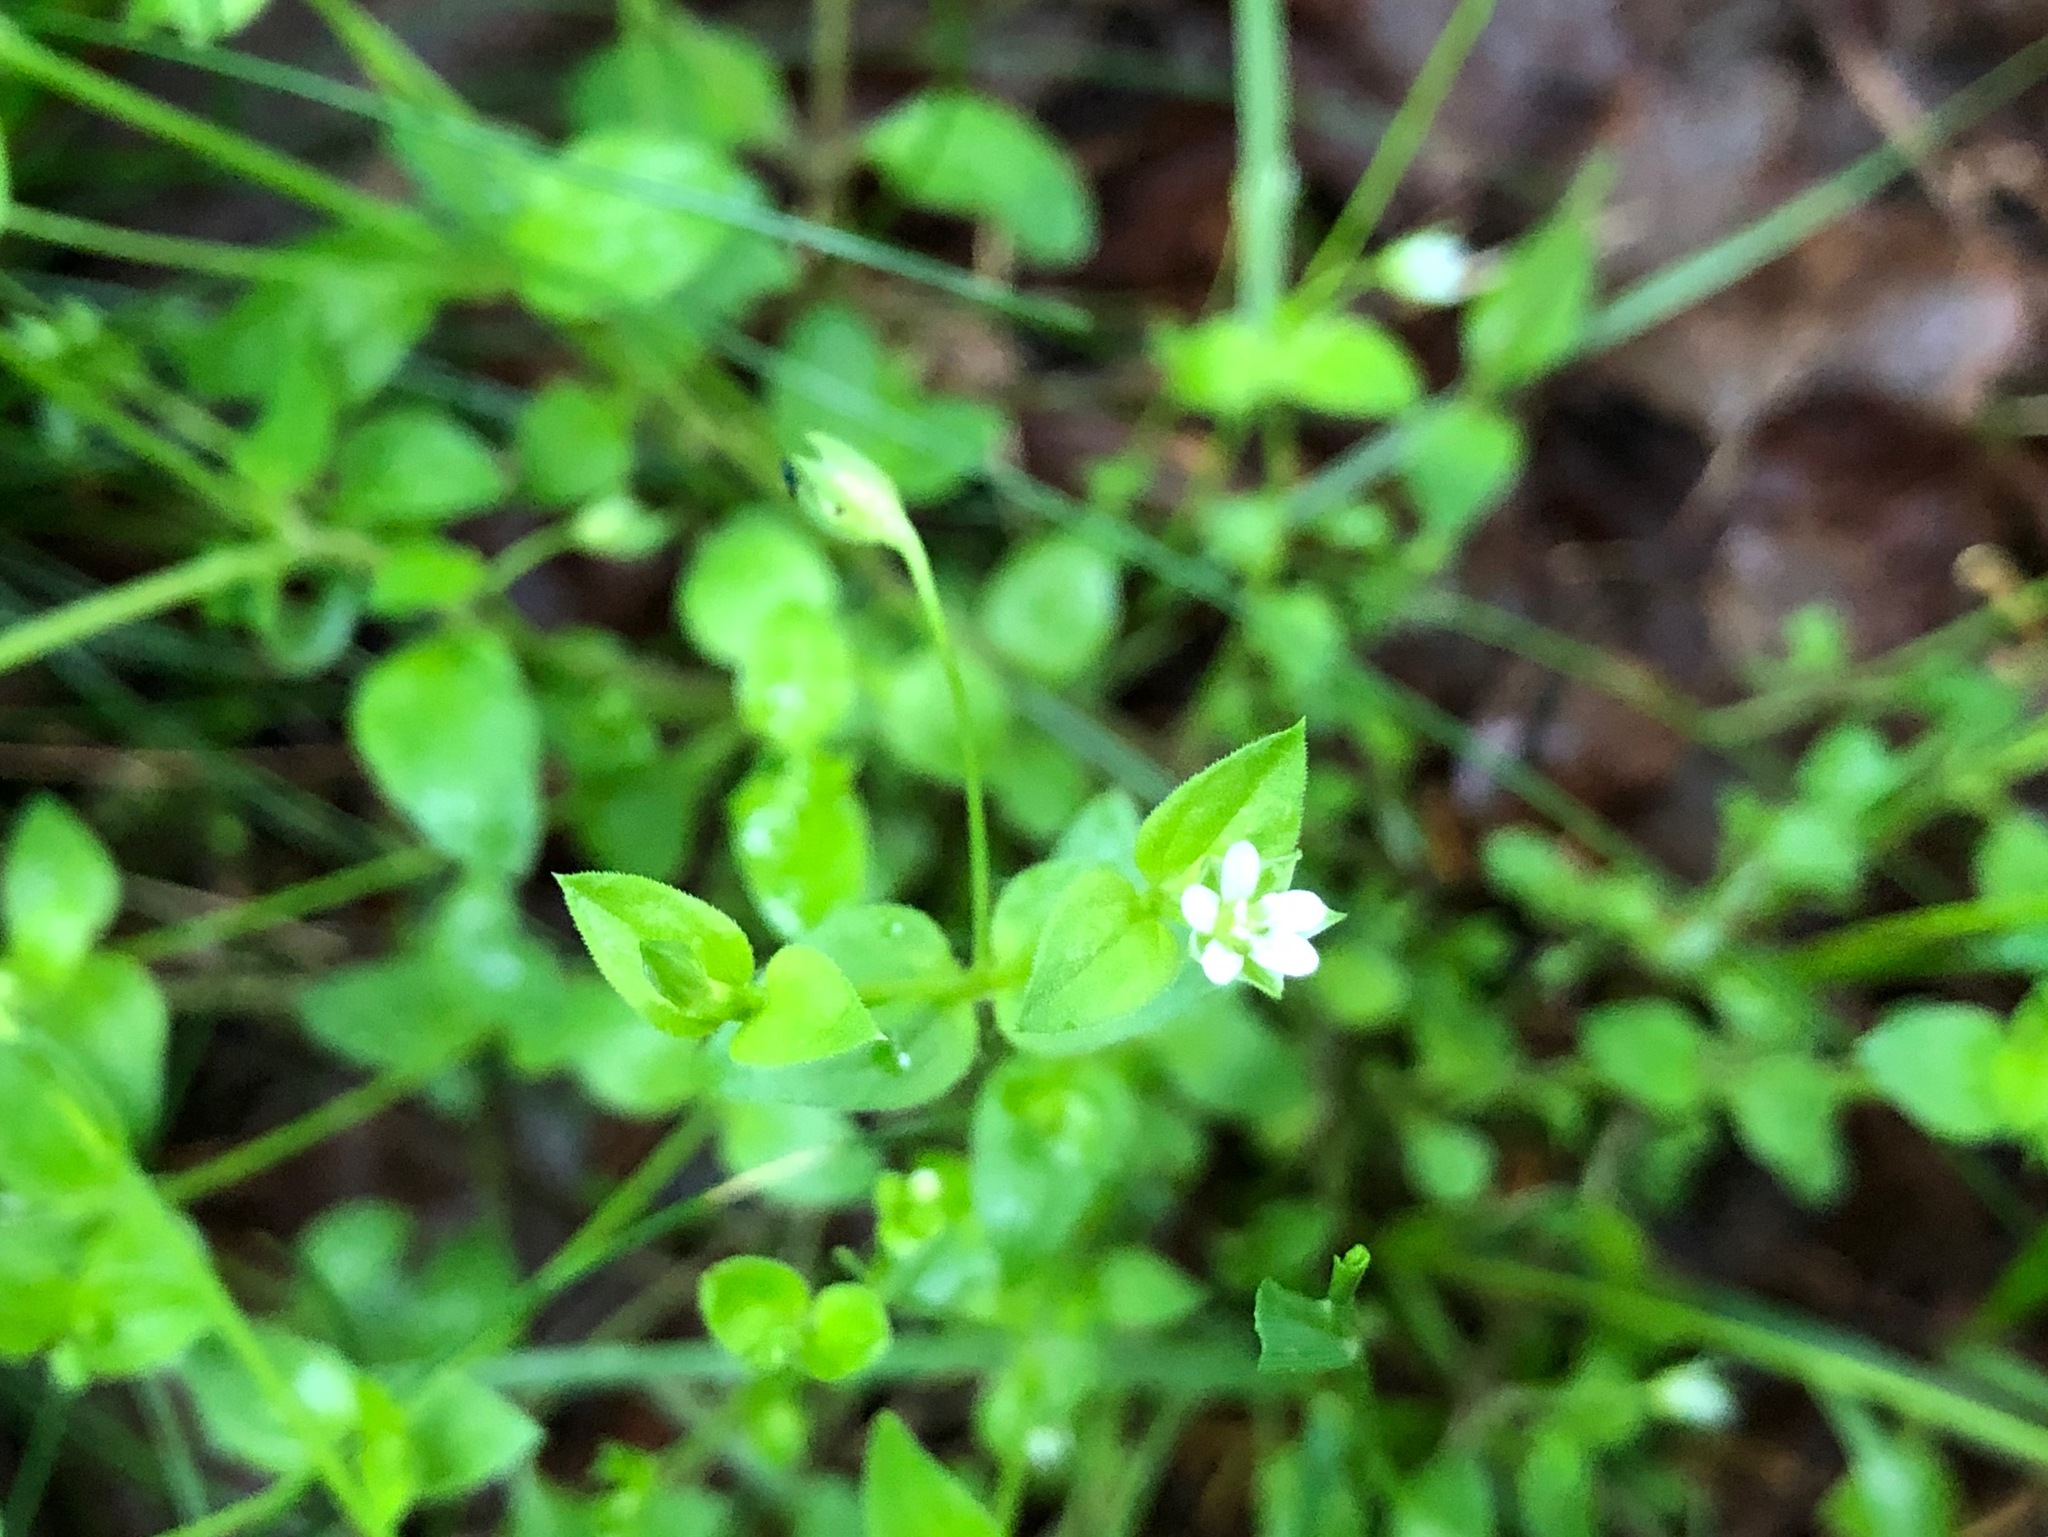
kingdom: Plantae
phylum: Tracheophyta
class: Magnoliopsida
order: Caryophyllales
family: Caryophyllaceae
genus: Moehringia
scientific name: Moehringia trinervia
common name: Three-nerved sandwort
